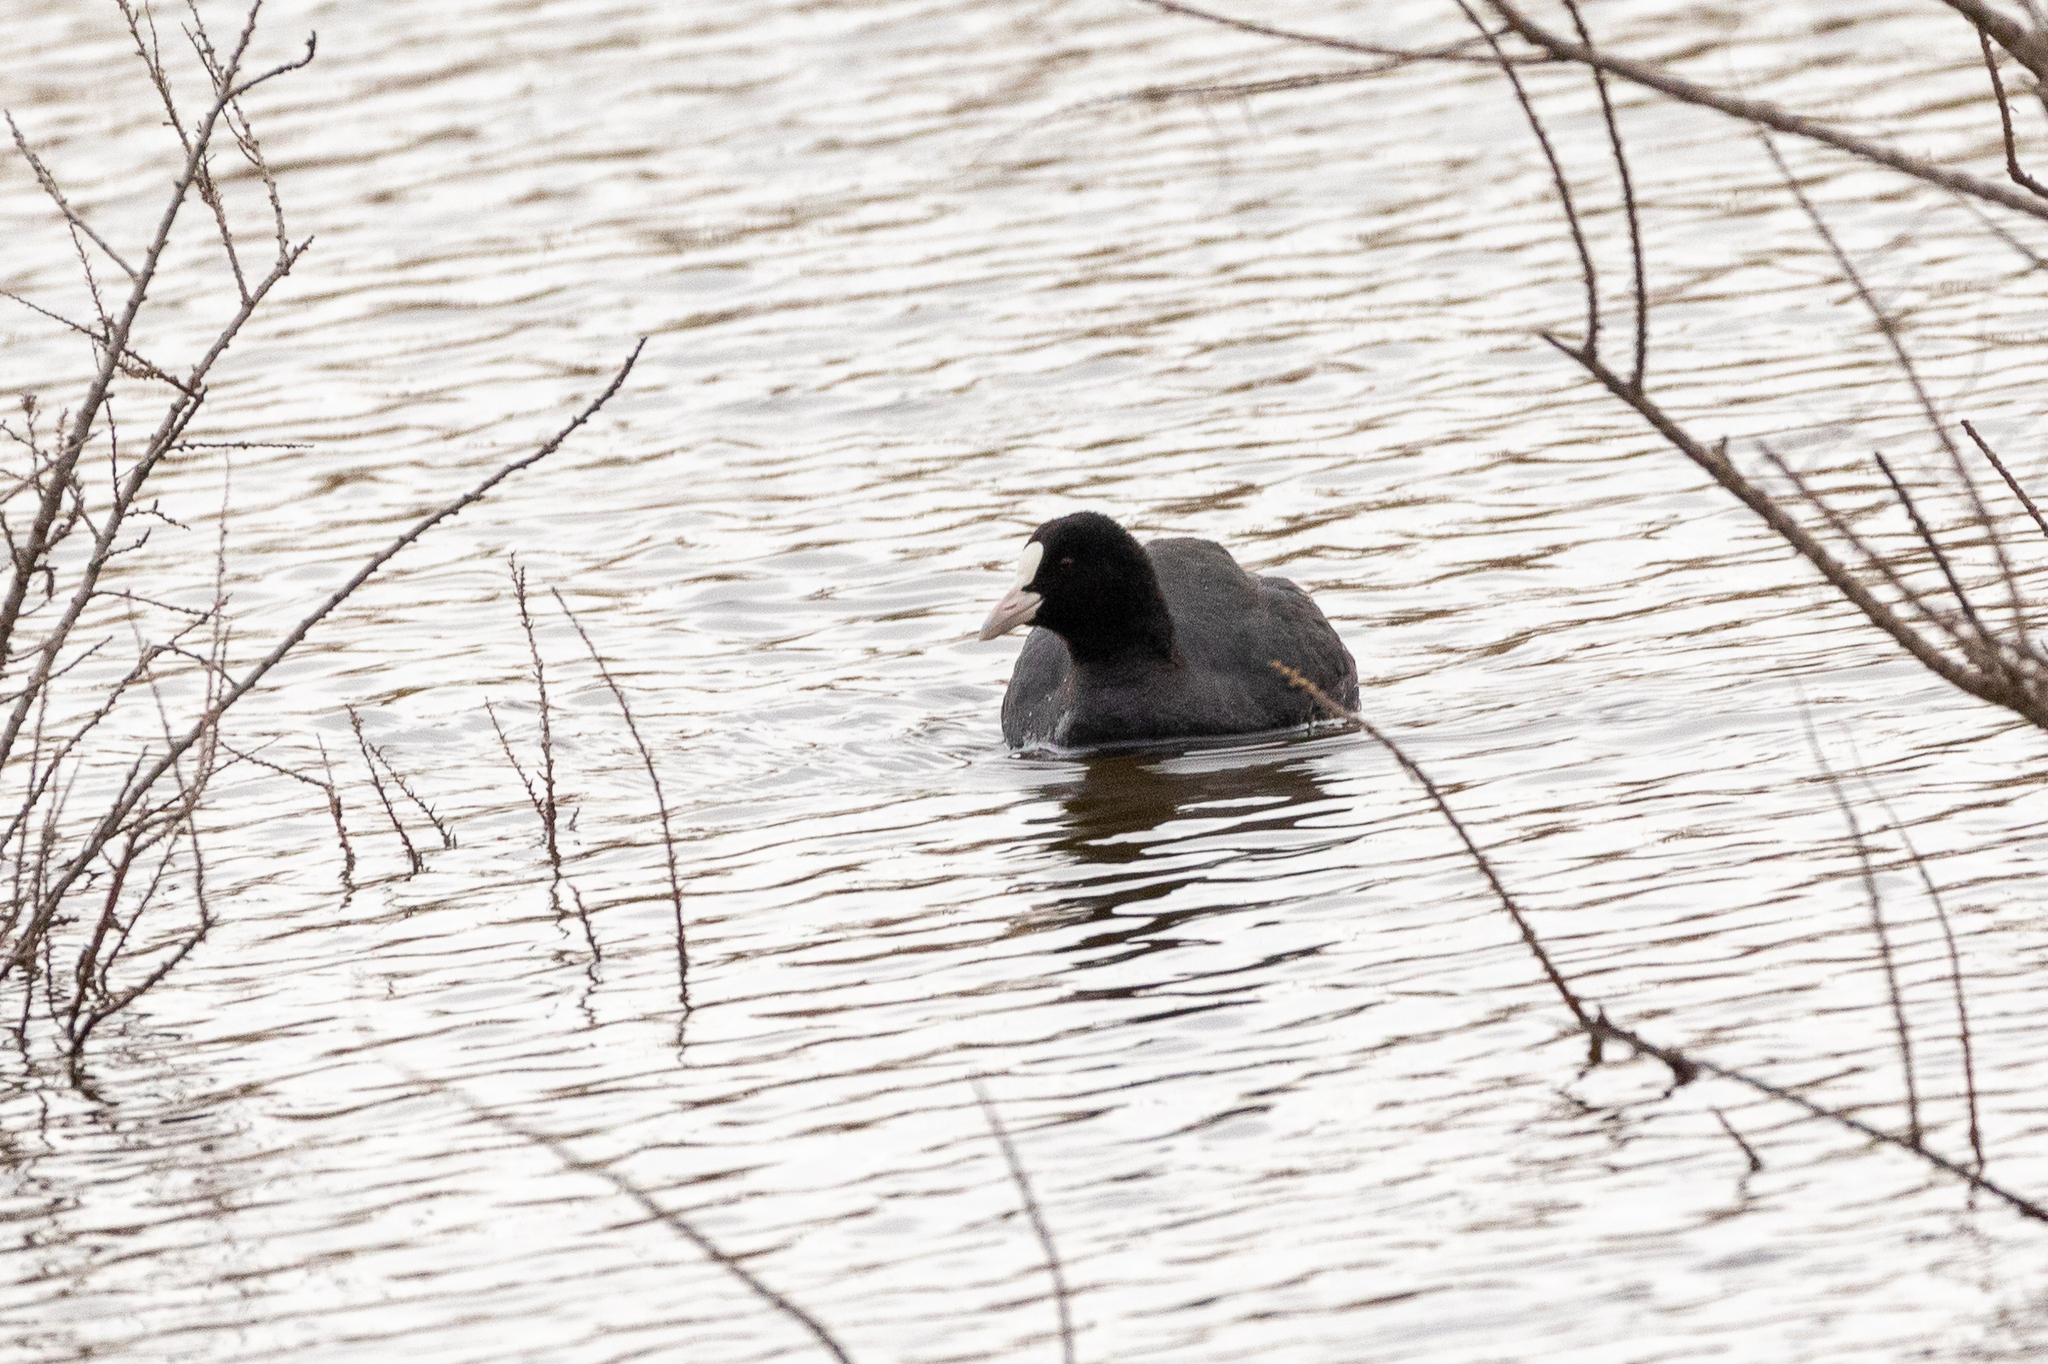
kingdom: Animalia
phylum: Chordata
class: Aves
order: Gruiformes
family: Rallidae
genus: Fulica
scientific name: Fulica atra
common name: Eurasian coot
